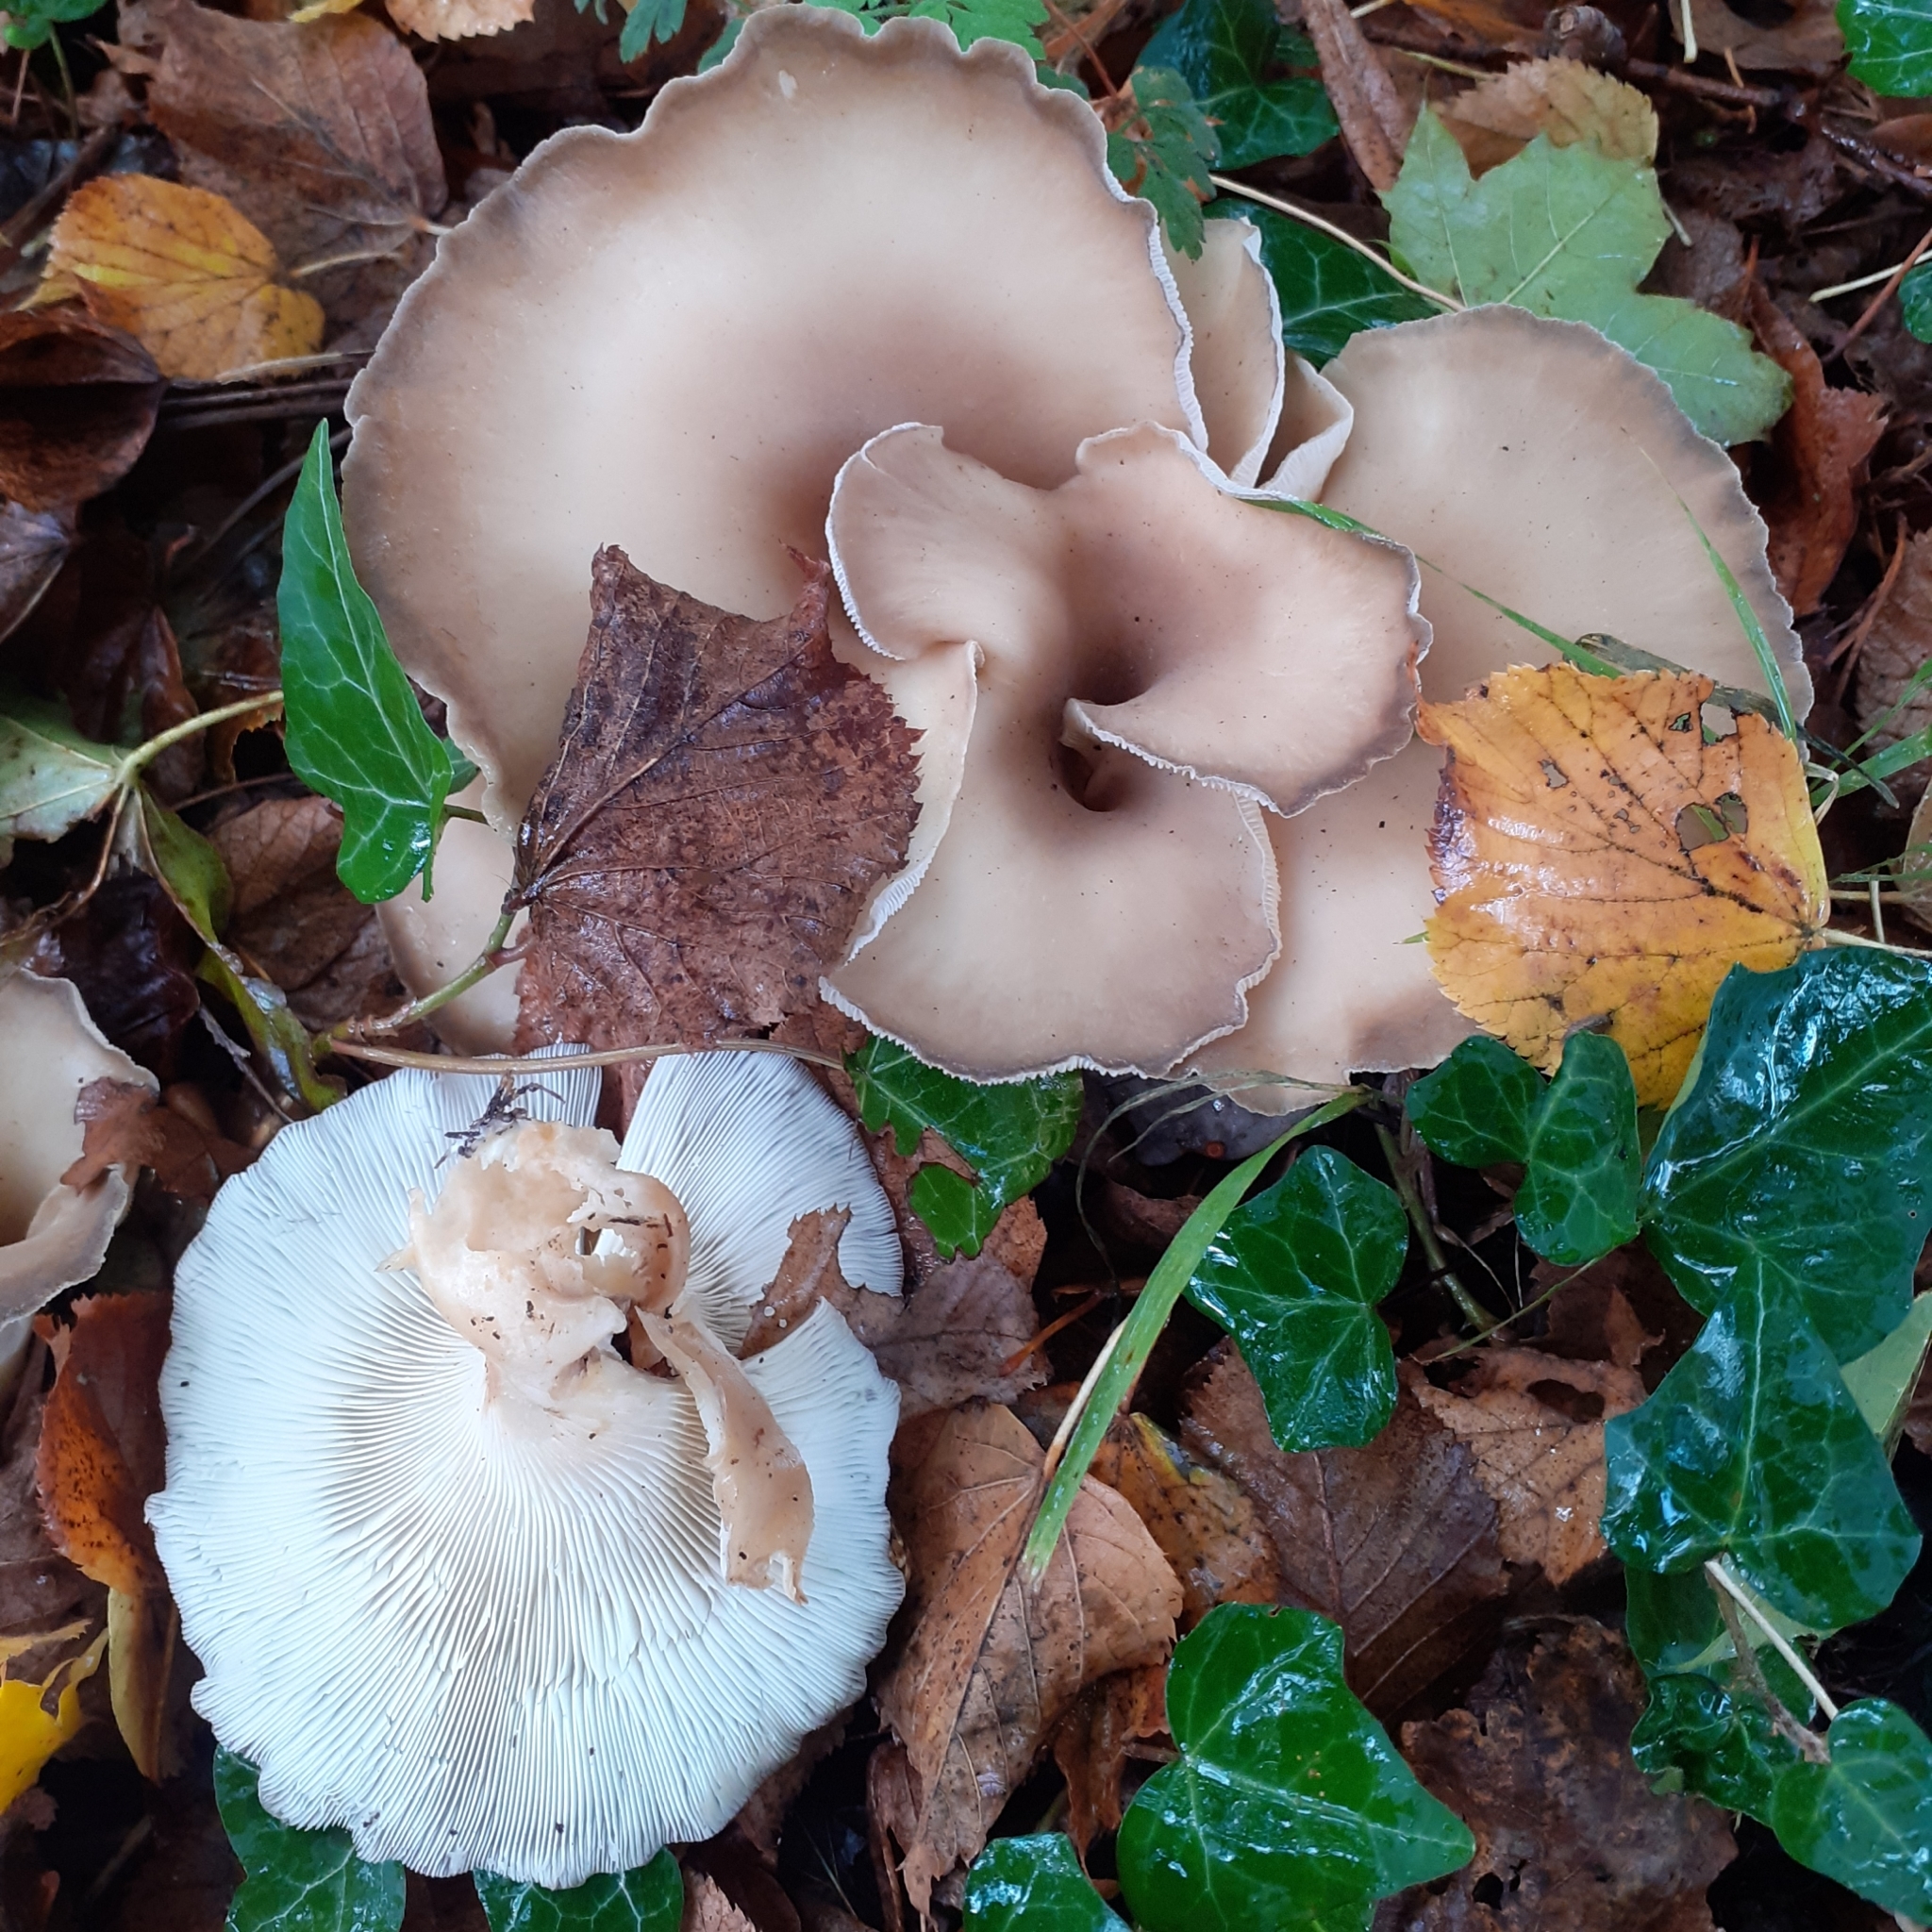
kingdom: Fungi
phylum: Basidiomycota
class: Agaricomycetes
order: Agaricales
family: Pleurotaceae
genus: Hohenbuehelia
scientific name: Hohenbuehelia petaloides
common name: Shoehorn oyster
